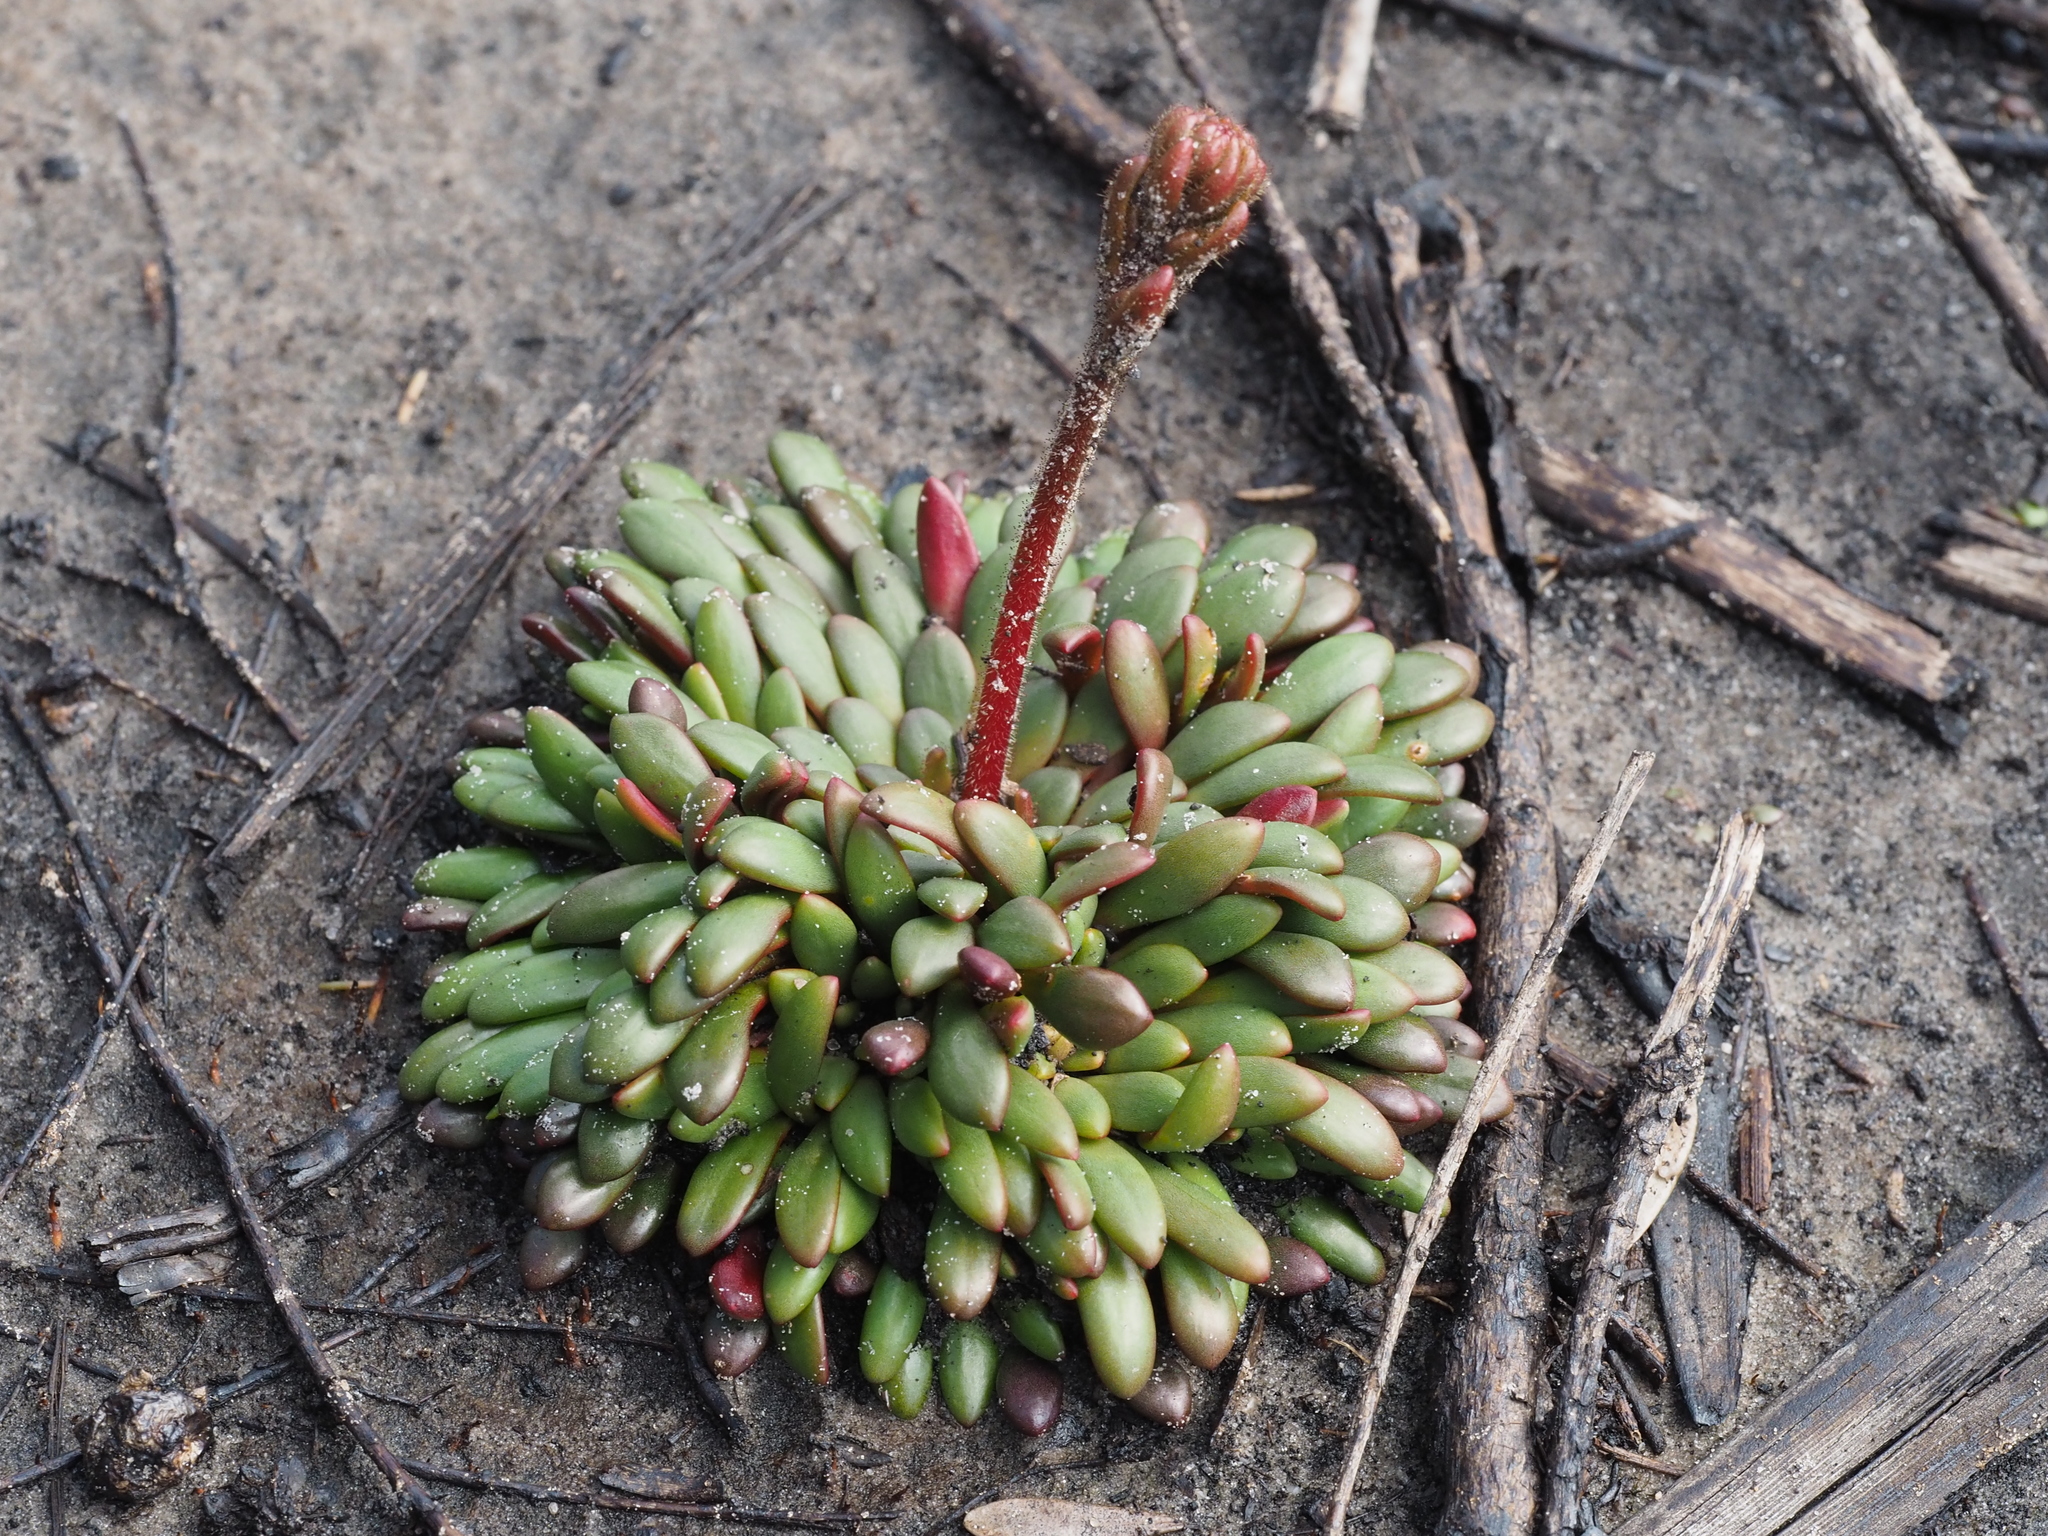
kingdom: Plantae
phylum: Tracheophyta
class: Magnoliopsida
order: Asterales
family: Stylidiaceae
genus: Stylidium
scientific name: Stylidium assimile
